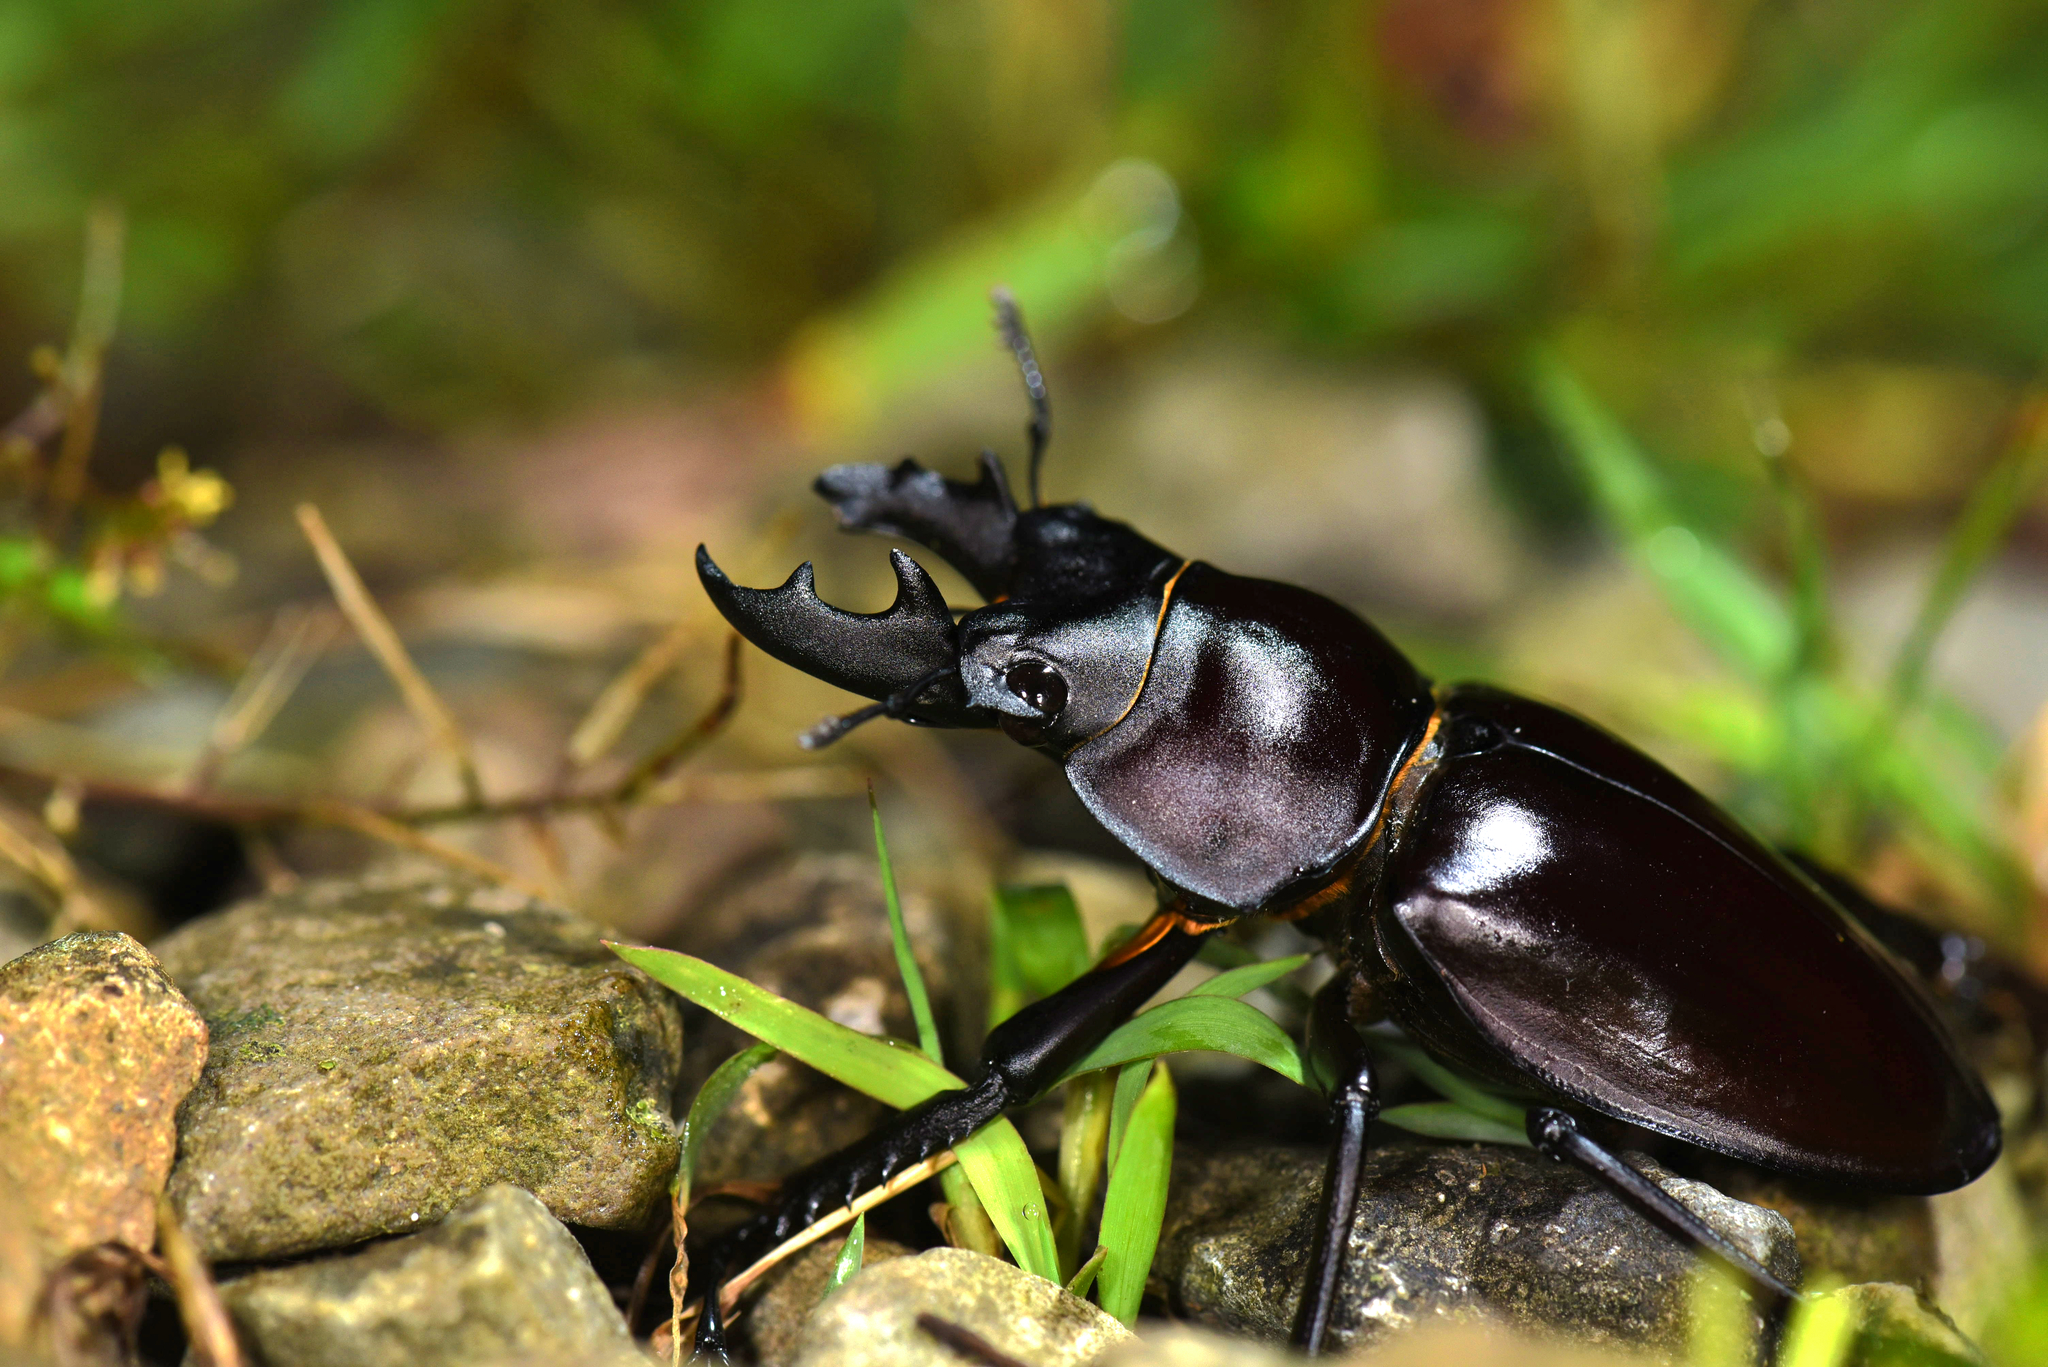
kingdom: Animalia
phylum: Arthropoda
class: Insecta
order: Coleoptera
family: Lucanidae
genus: Neolucanus
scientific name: Neolucanus maximus
